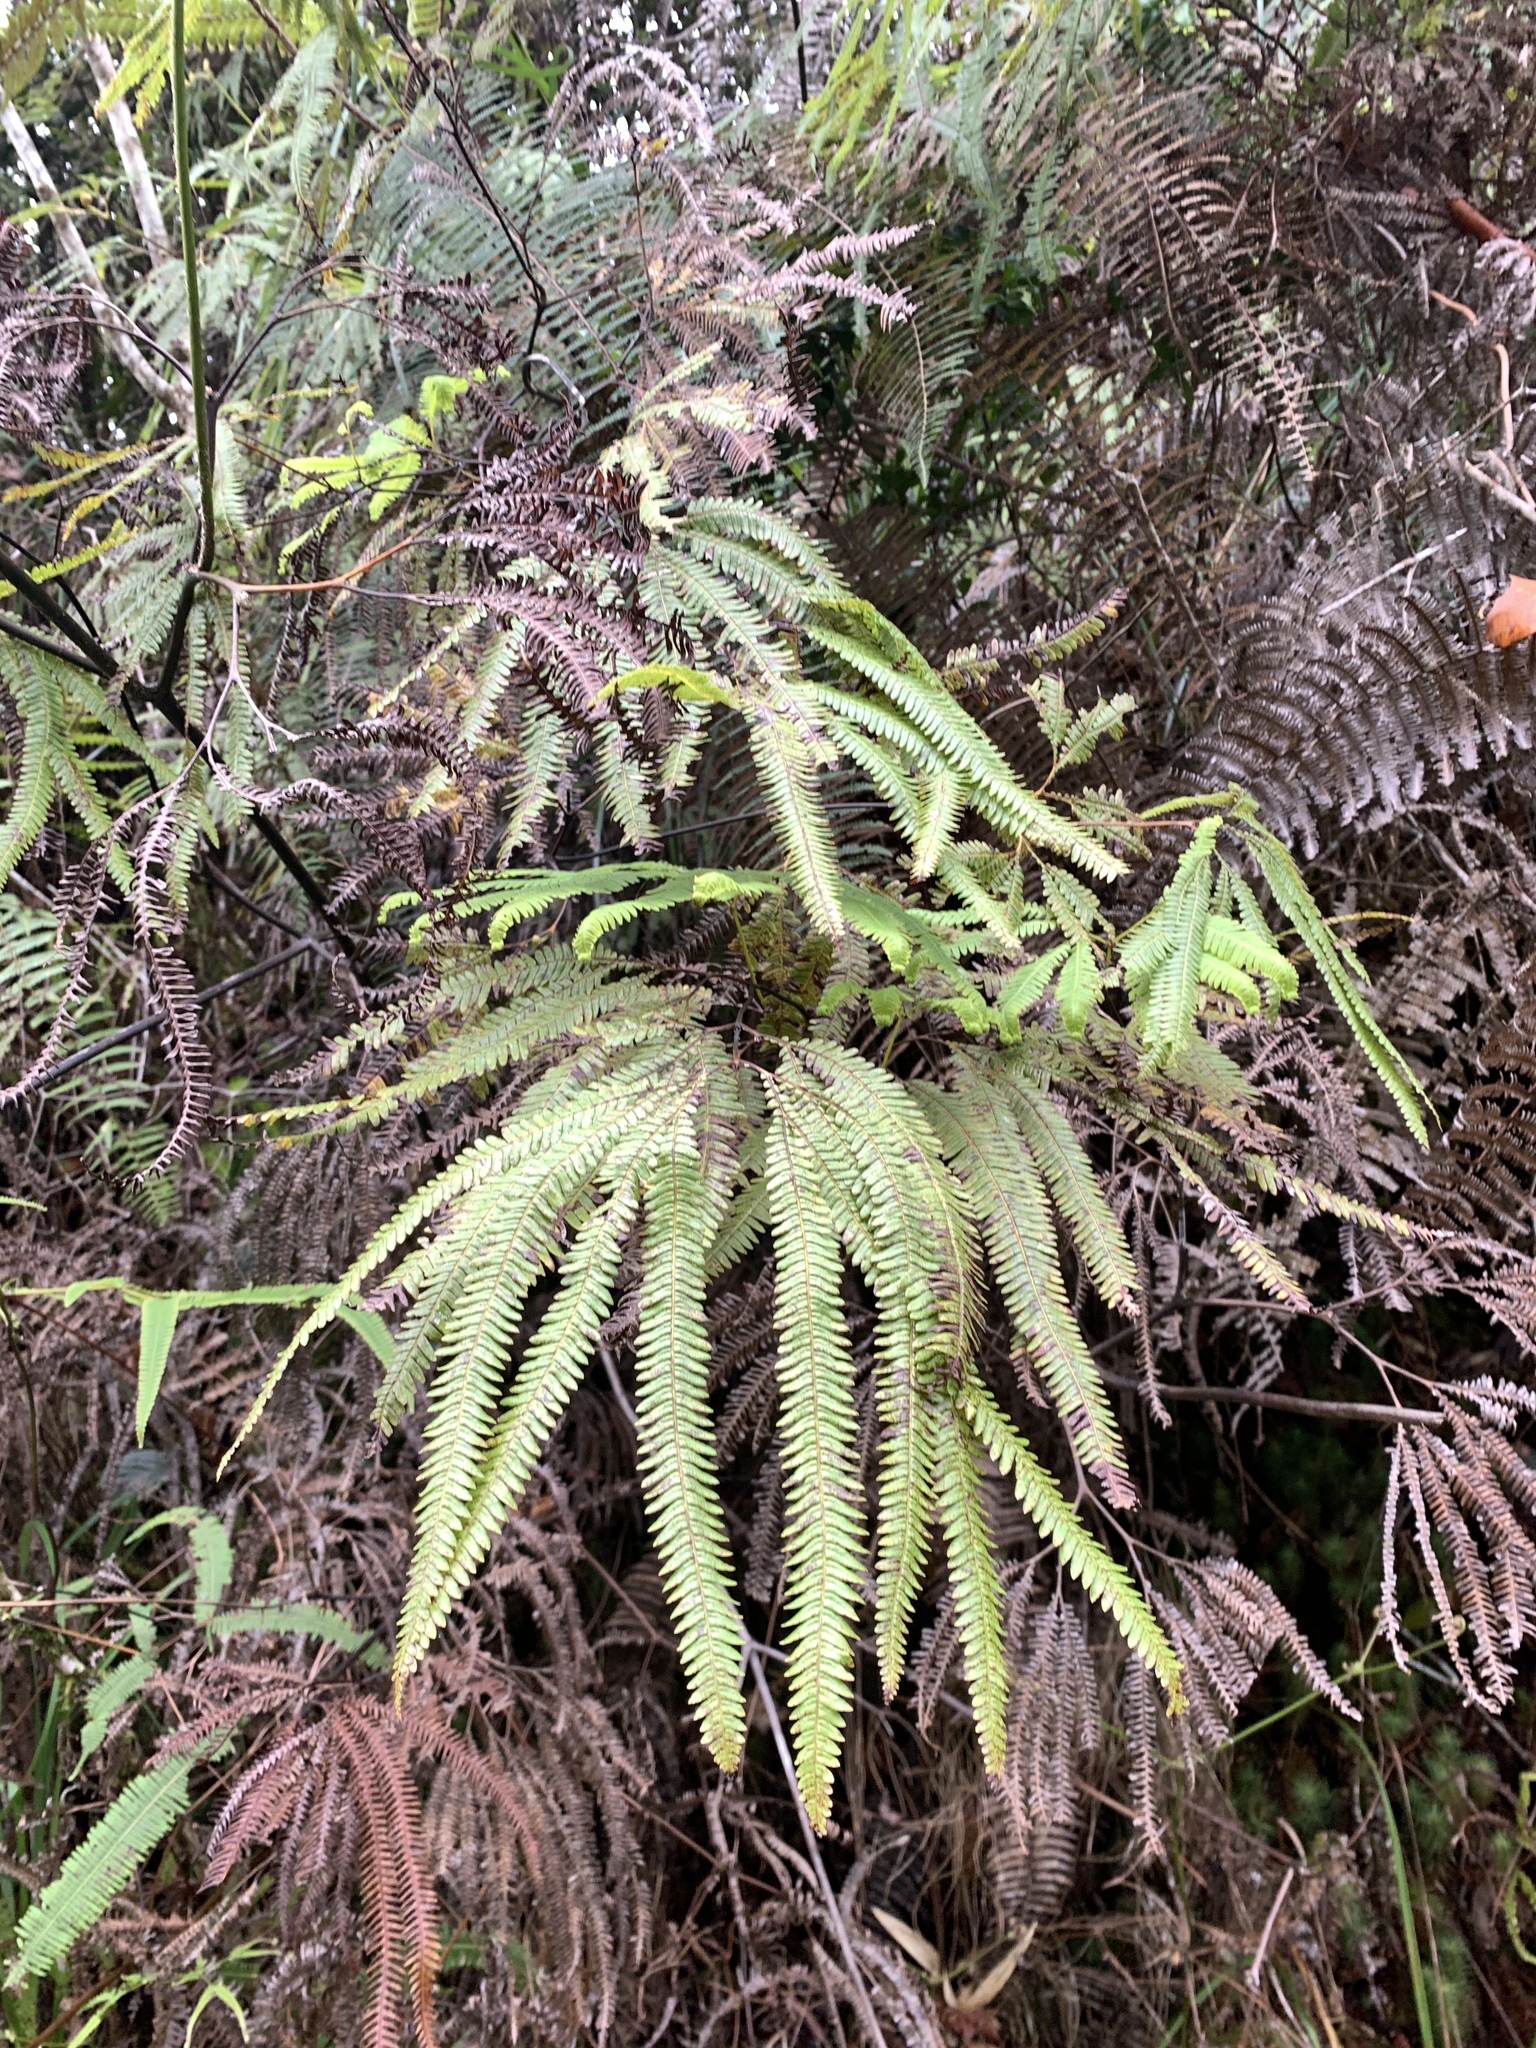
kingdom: Plantae
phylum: Tracheophyta
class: Polypodiopsida
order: Gleicheniales
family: Gleicheniaceae
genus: Sticherus
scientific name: Sticherus hirtus
